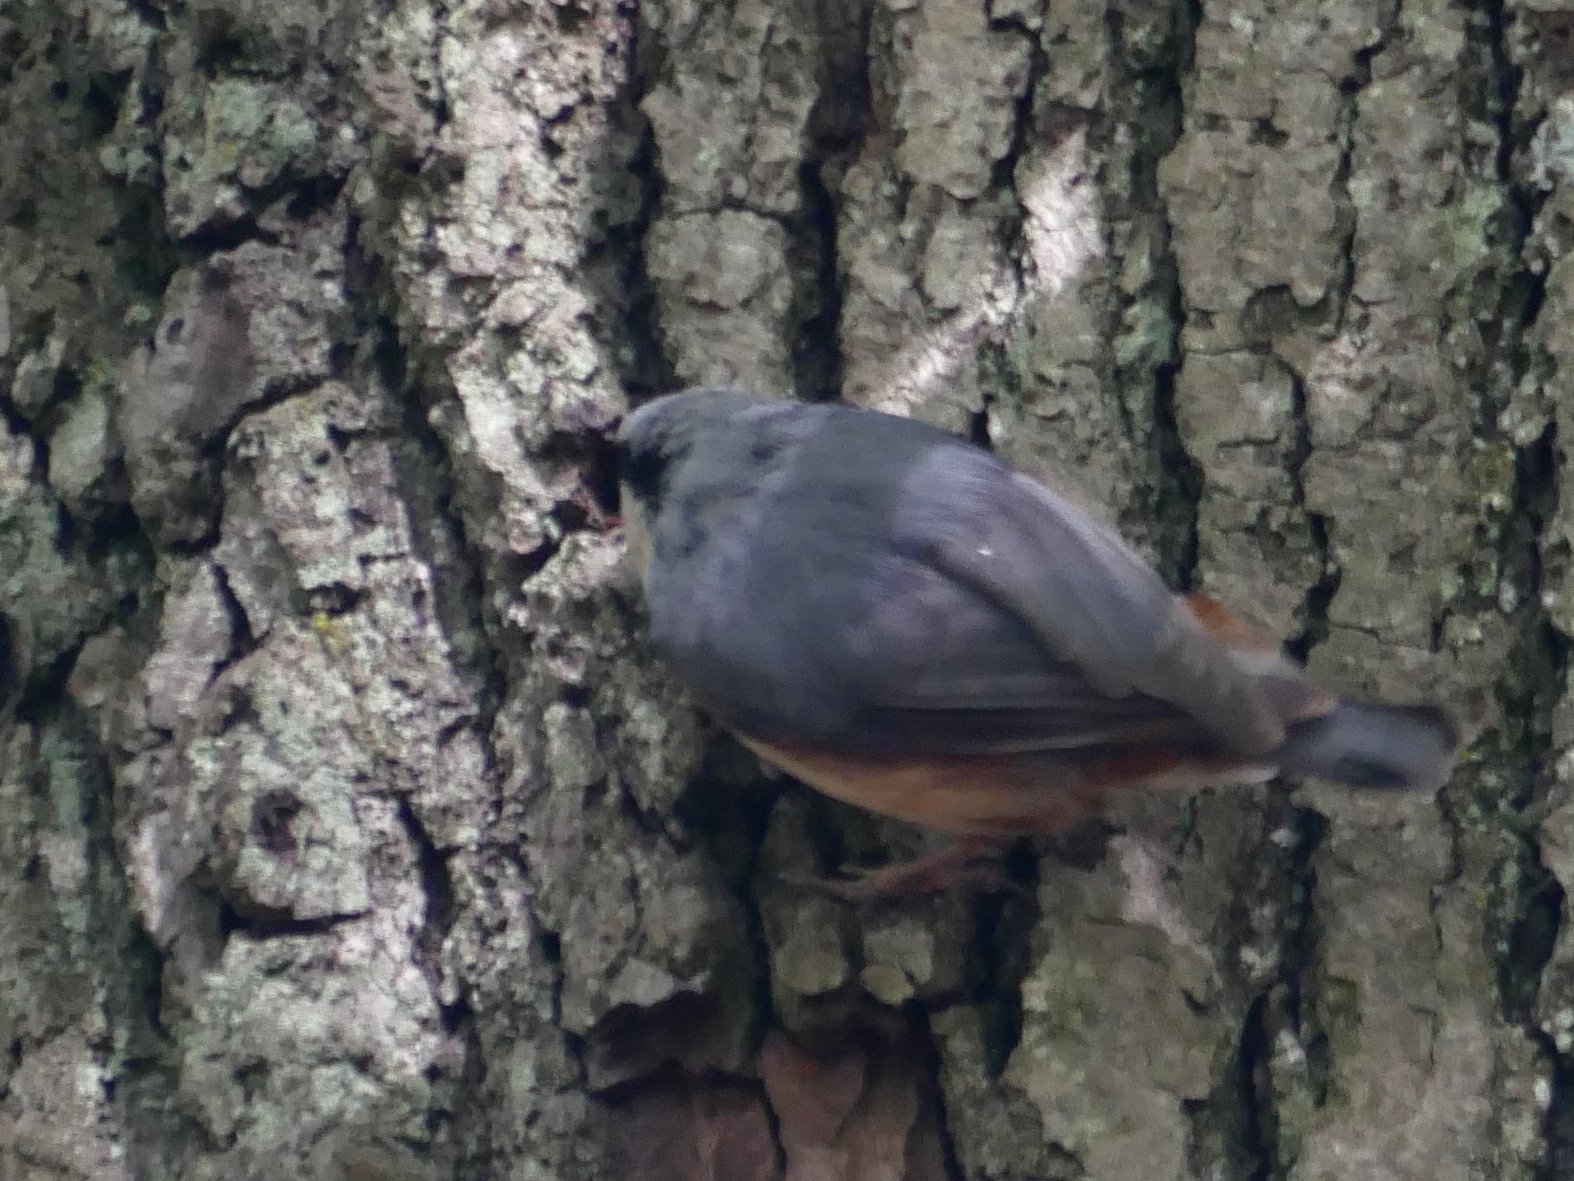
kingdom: Animalia
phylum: Chordata
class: Aves
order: Passeriformes
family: Sittidae
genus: Sitta
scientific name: Sitta europaea
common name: Eurasian nuthatch
